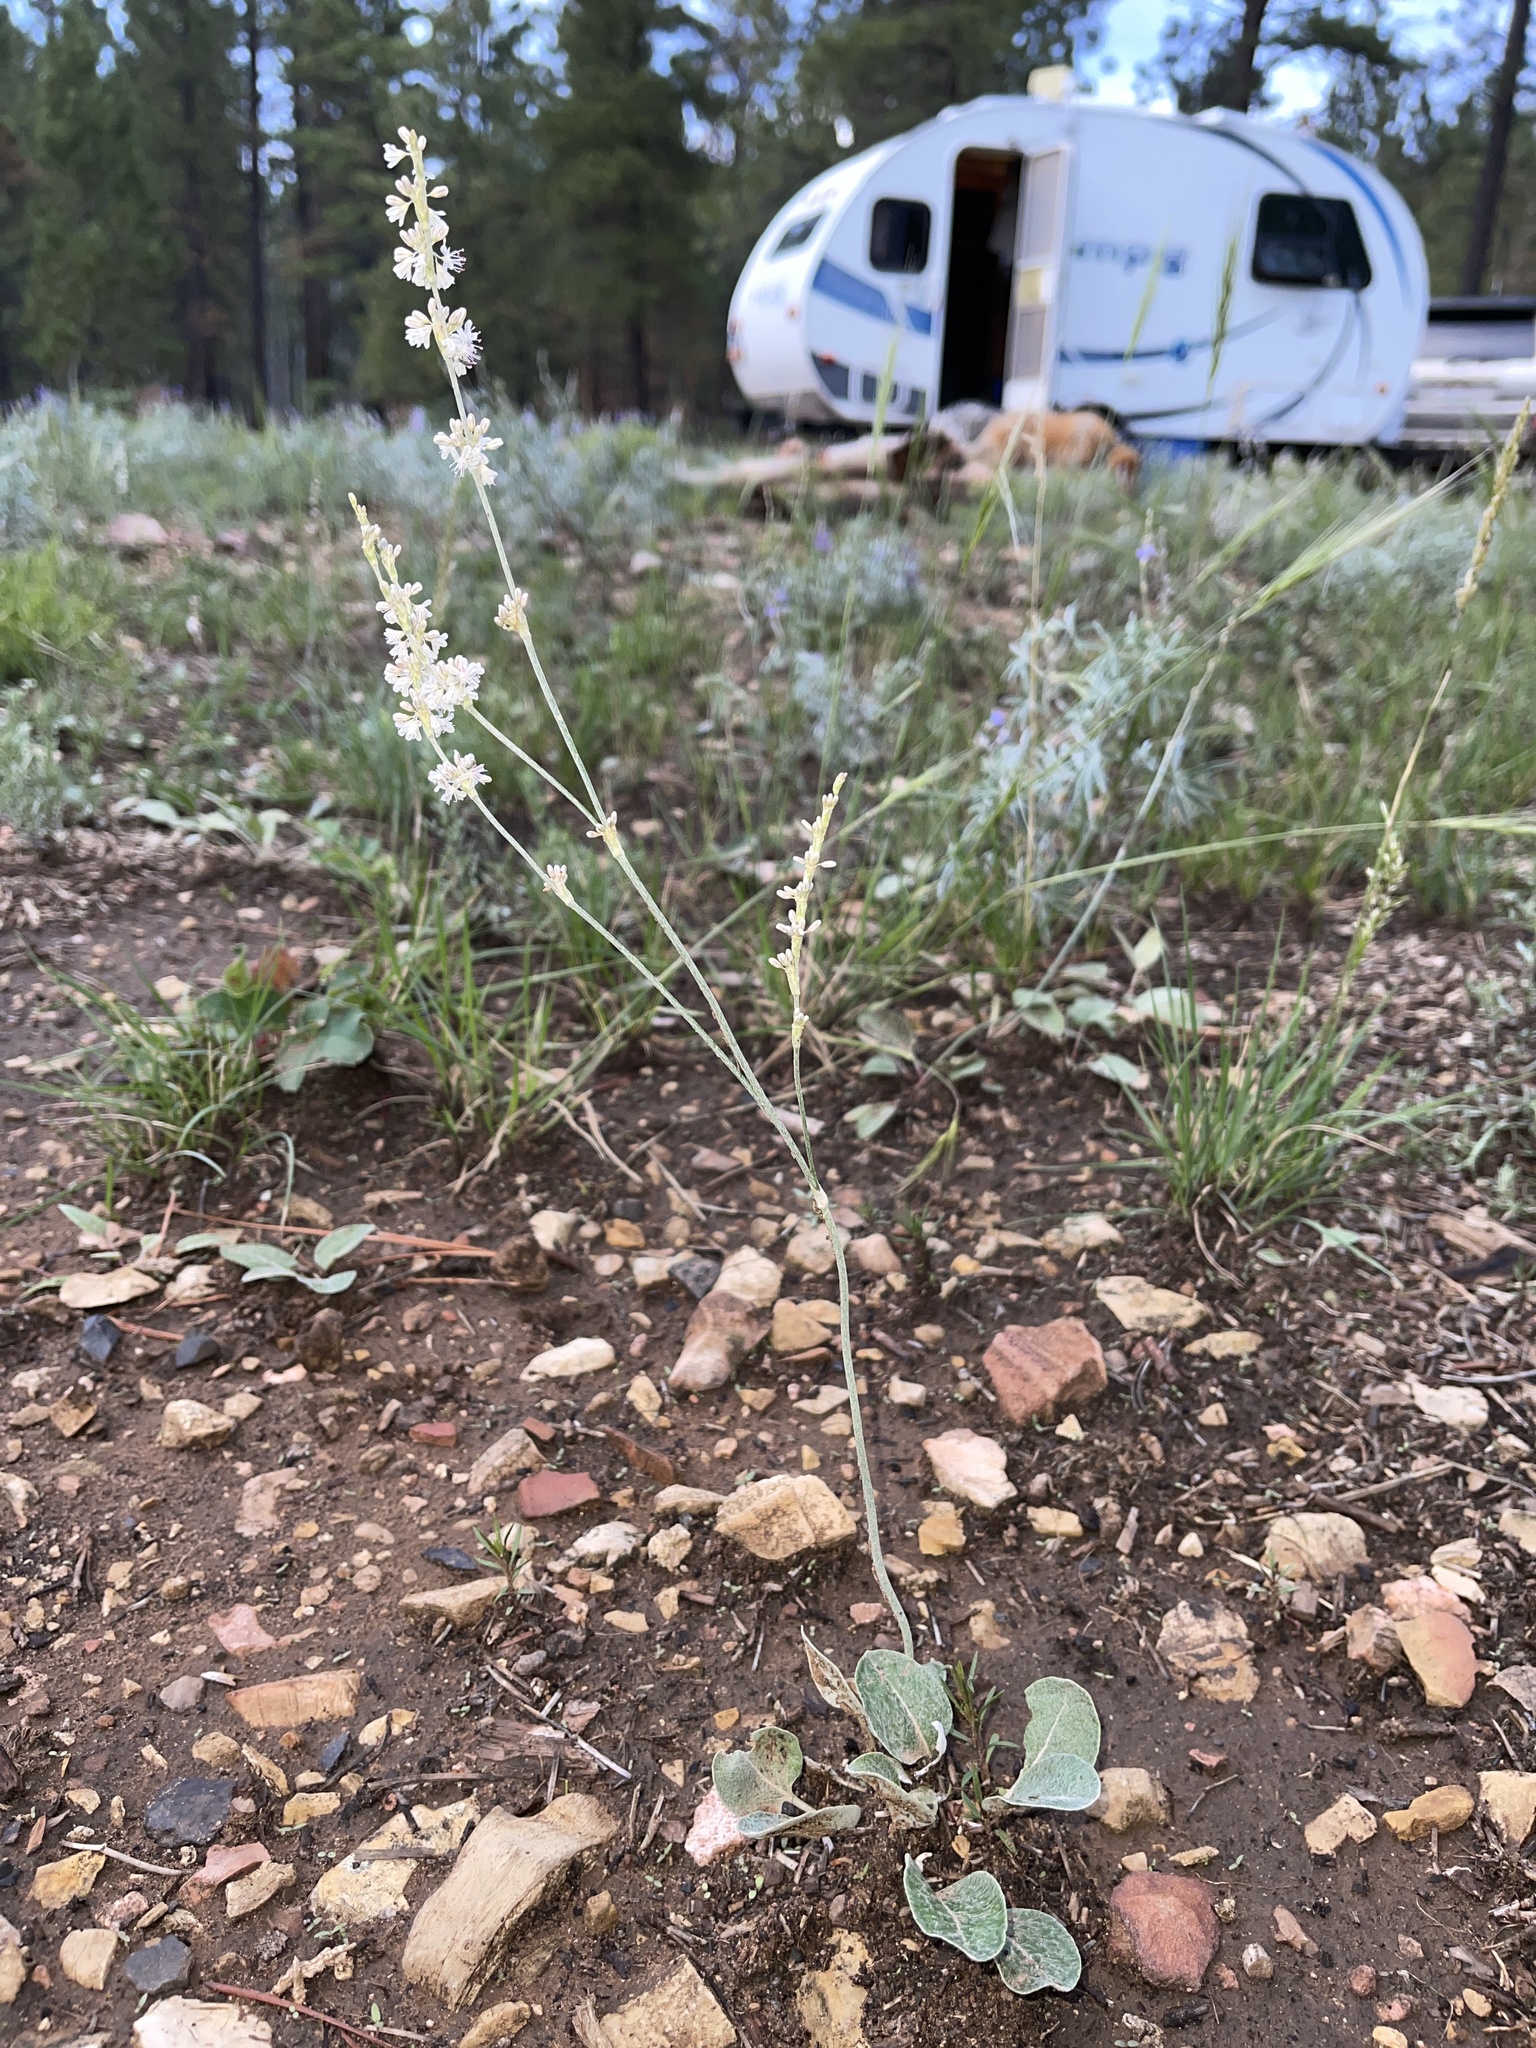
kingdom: Plantae
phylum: Tracheophyta
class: Magnoliopsida
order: Caryophyllales
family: Polygonaceae
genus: Eriogonum
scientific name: Eriogonum racemosum
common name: Redroot wild buckwheat
